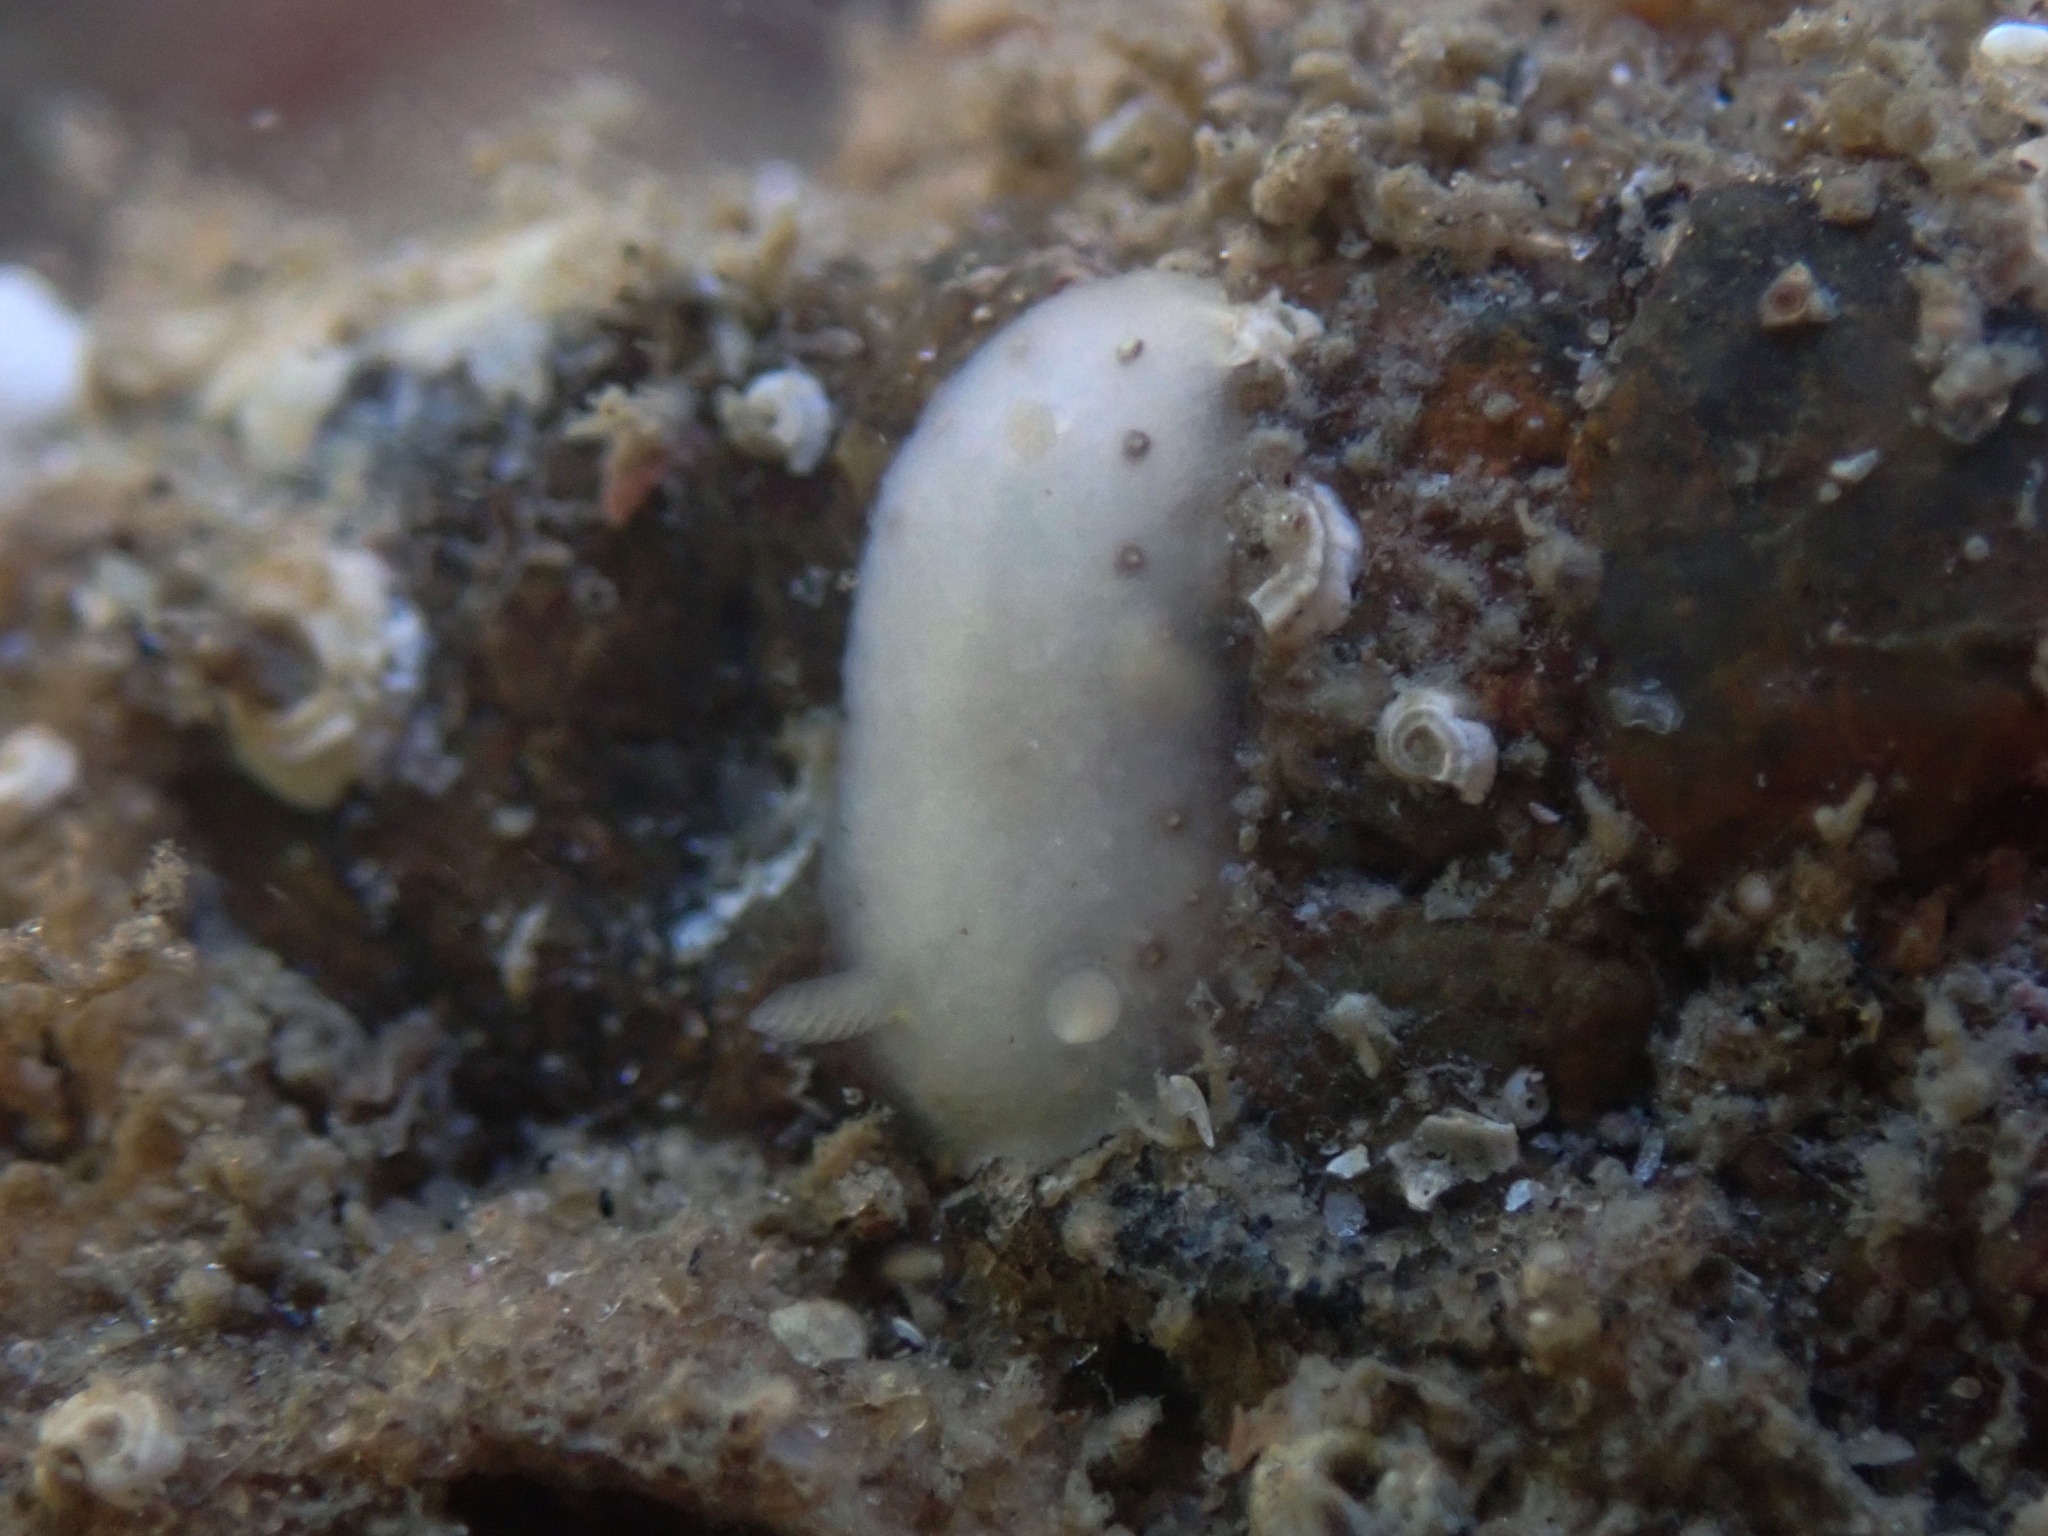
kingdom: Animalia
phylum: Mollusca
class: Gastropoda
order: Nudibranchia
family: Cadlinidae
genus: Cadlina
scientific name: Cadlina sparsa
